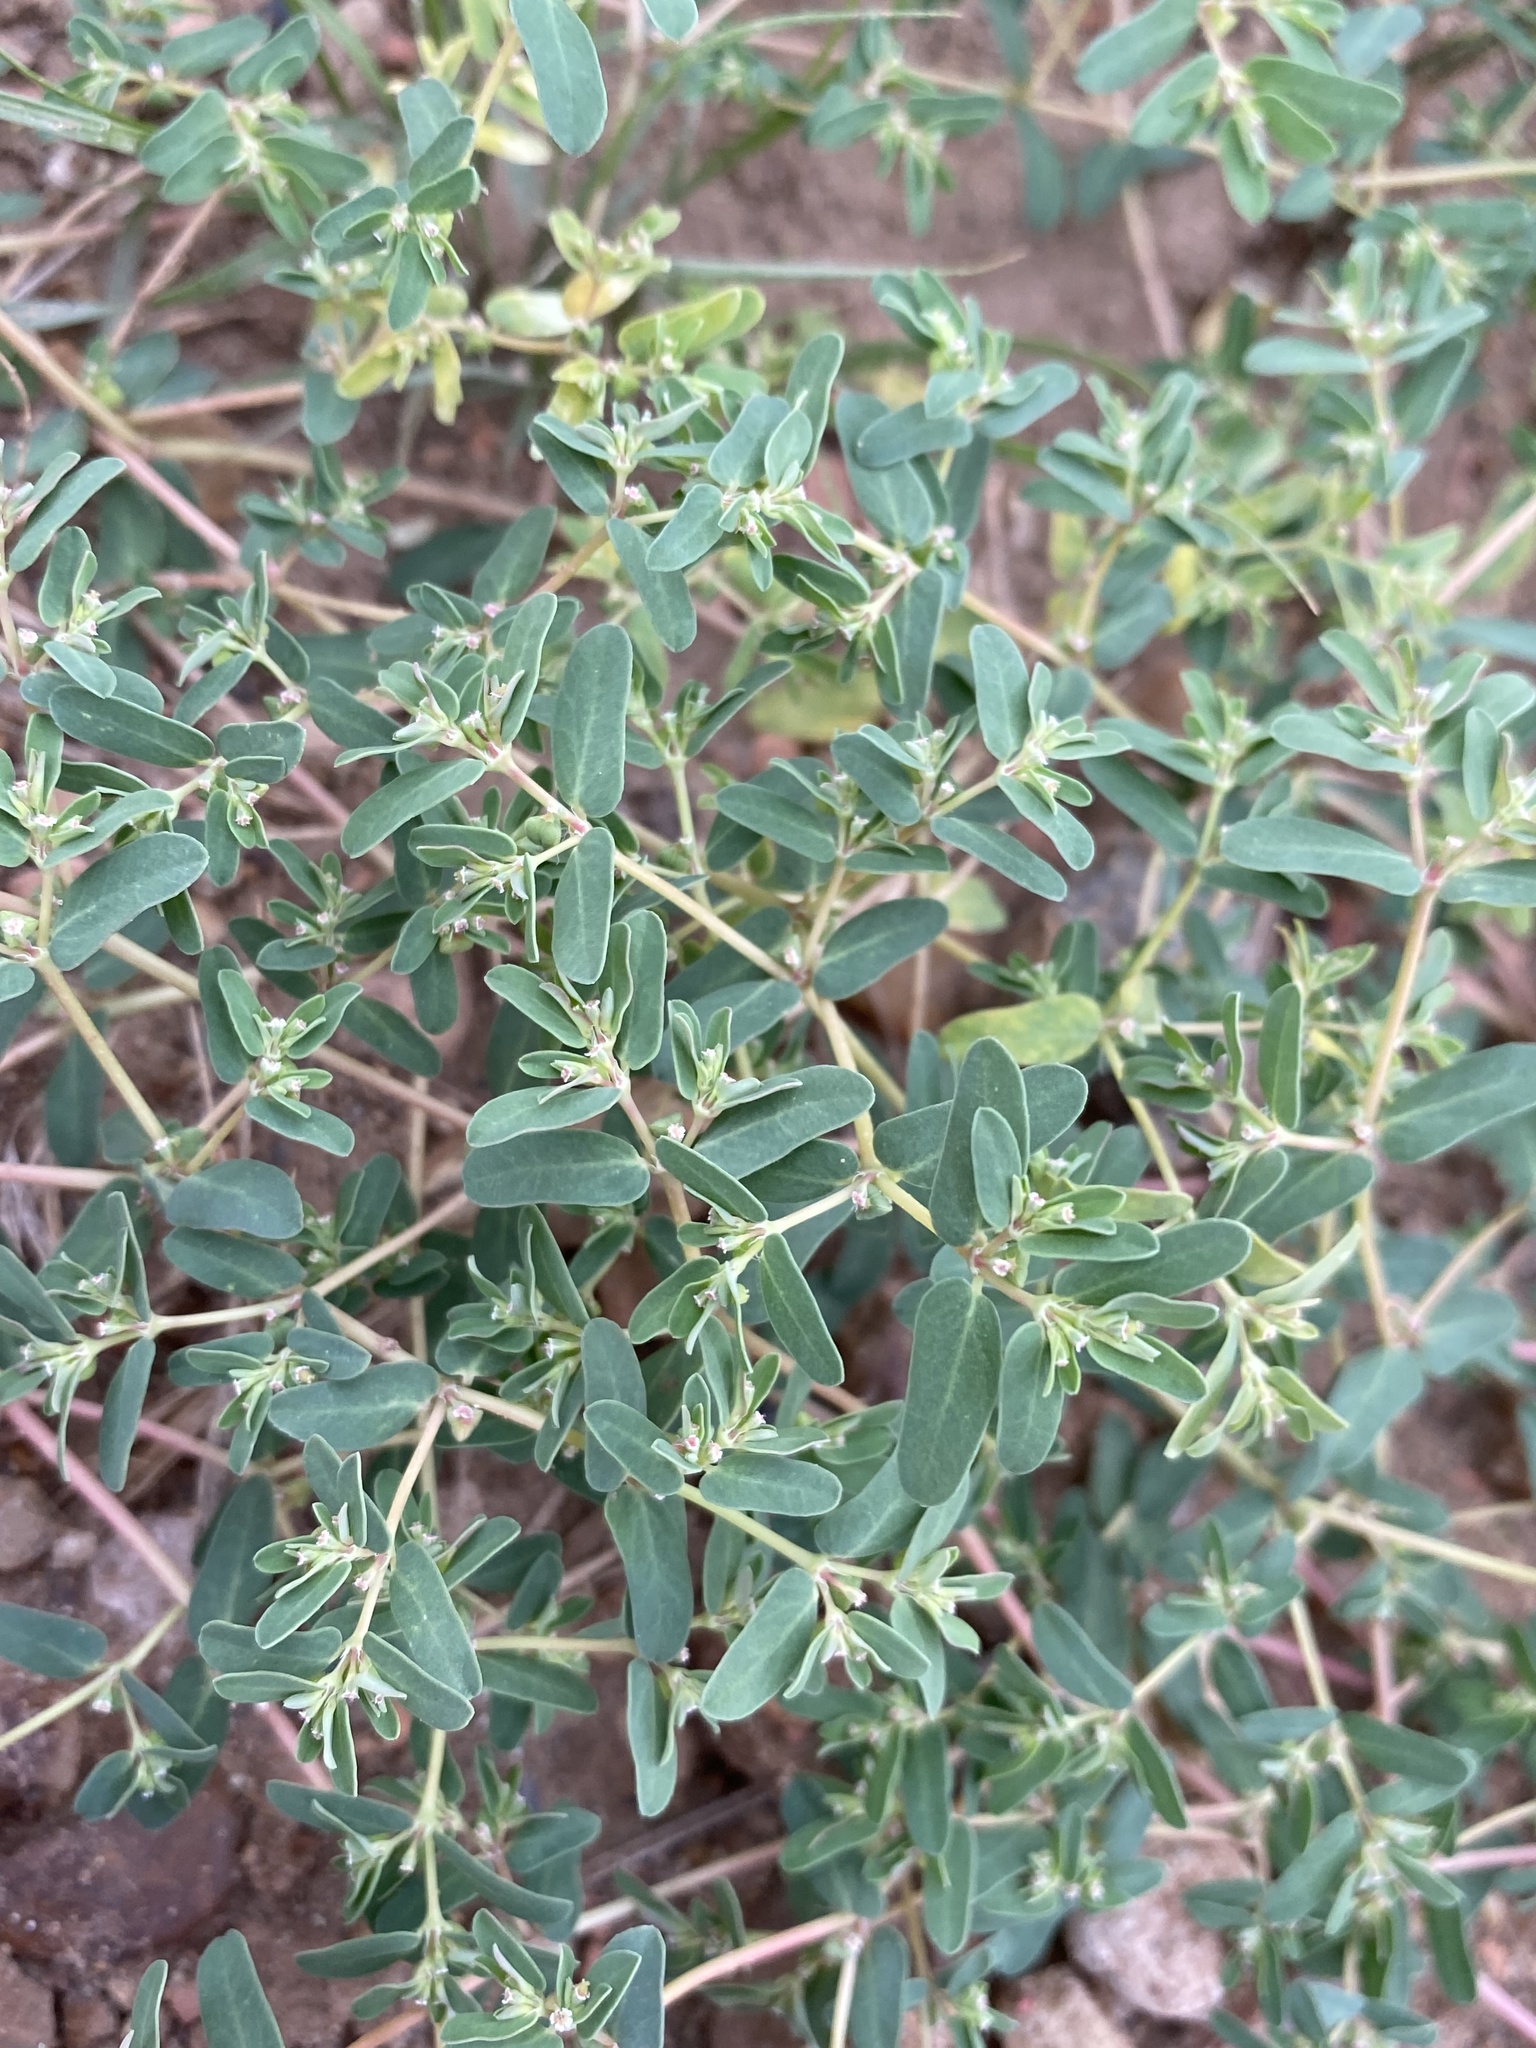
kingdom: Plantae
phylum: Tracheophyta
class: Magnoliopsida
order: Malpighiales
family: Euphorbiaceae
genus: Euphorbia
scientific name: Euphorbia glyptosperma
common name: Corrugate-seeded spurge
